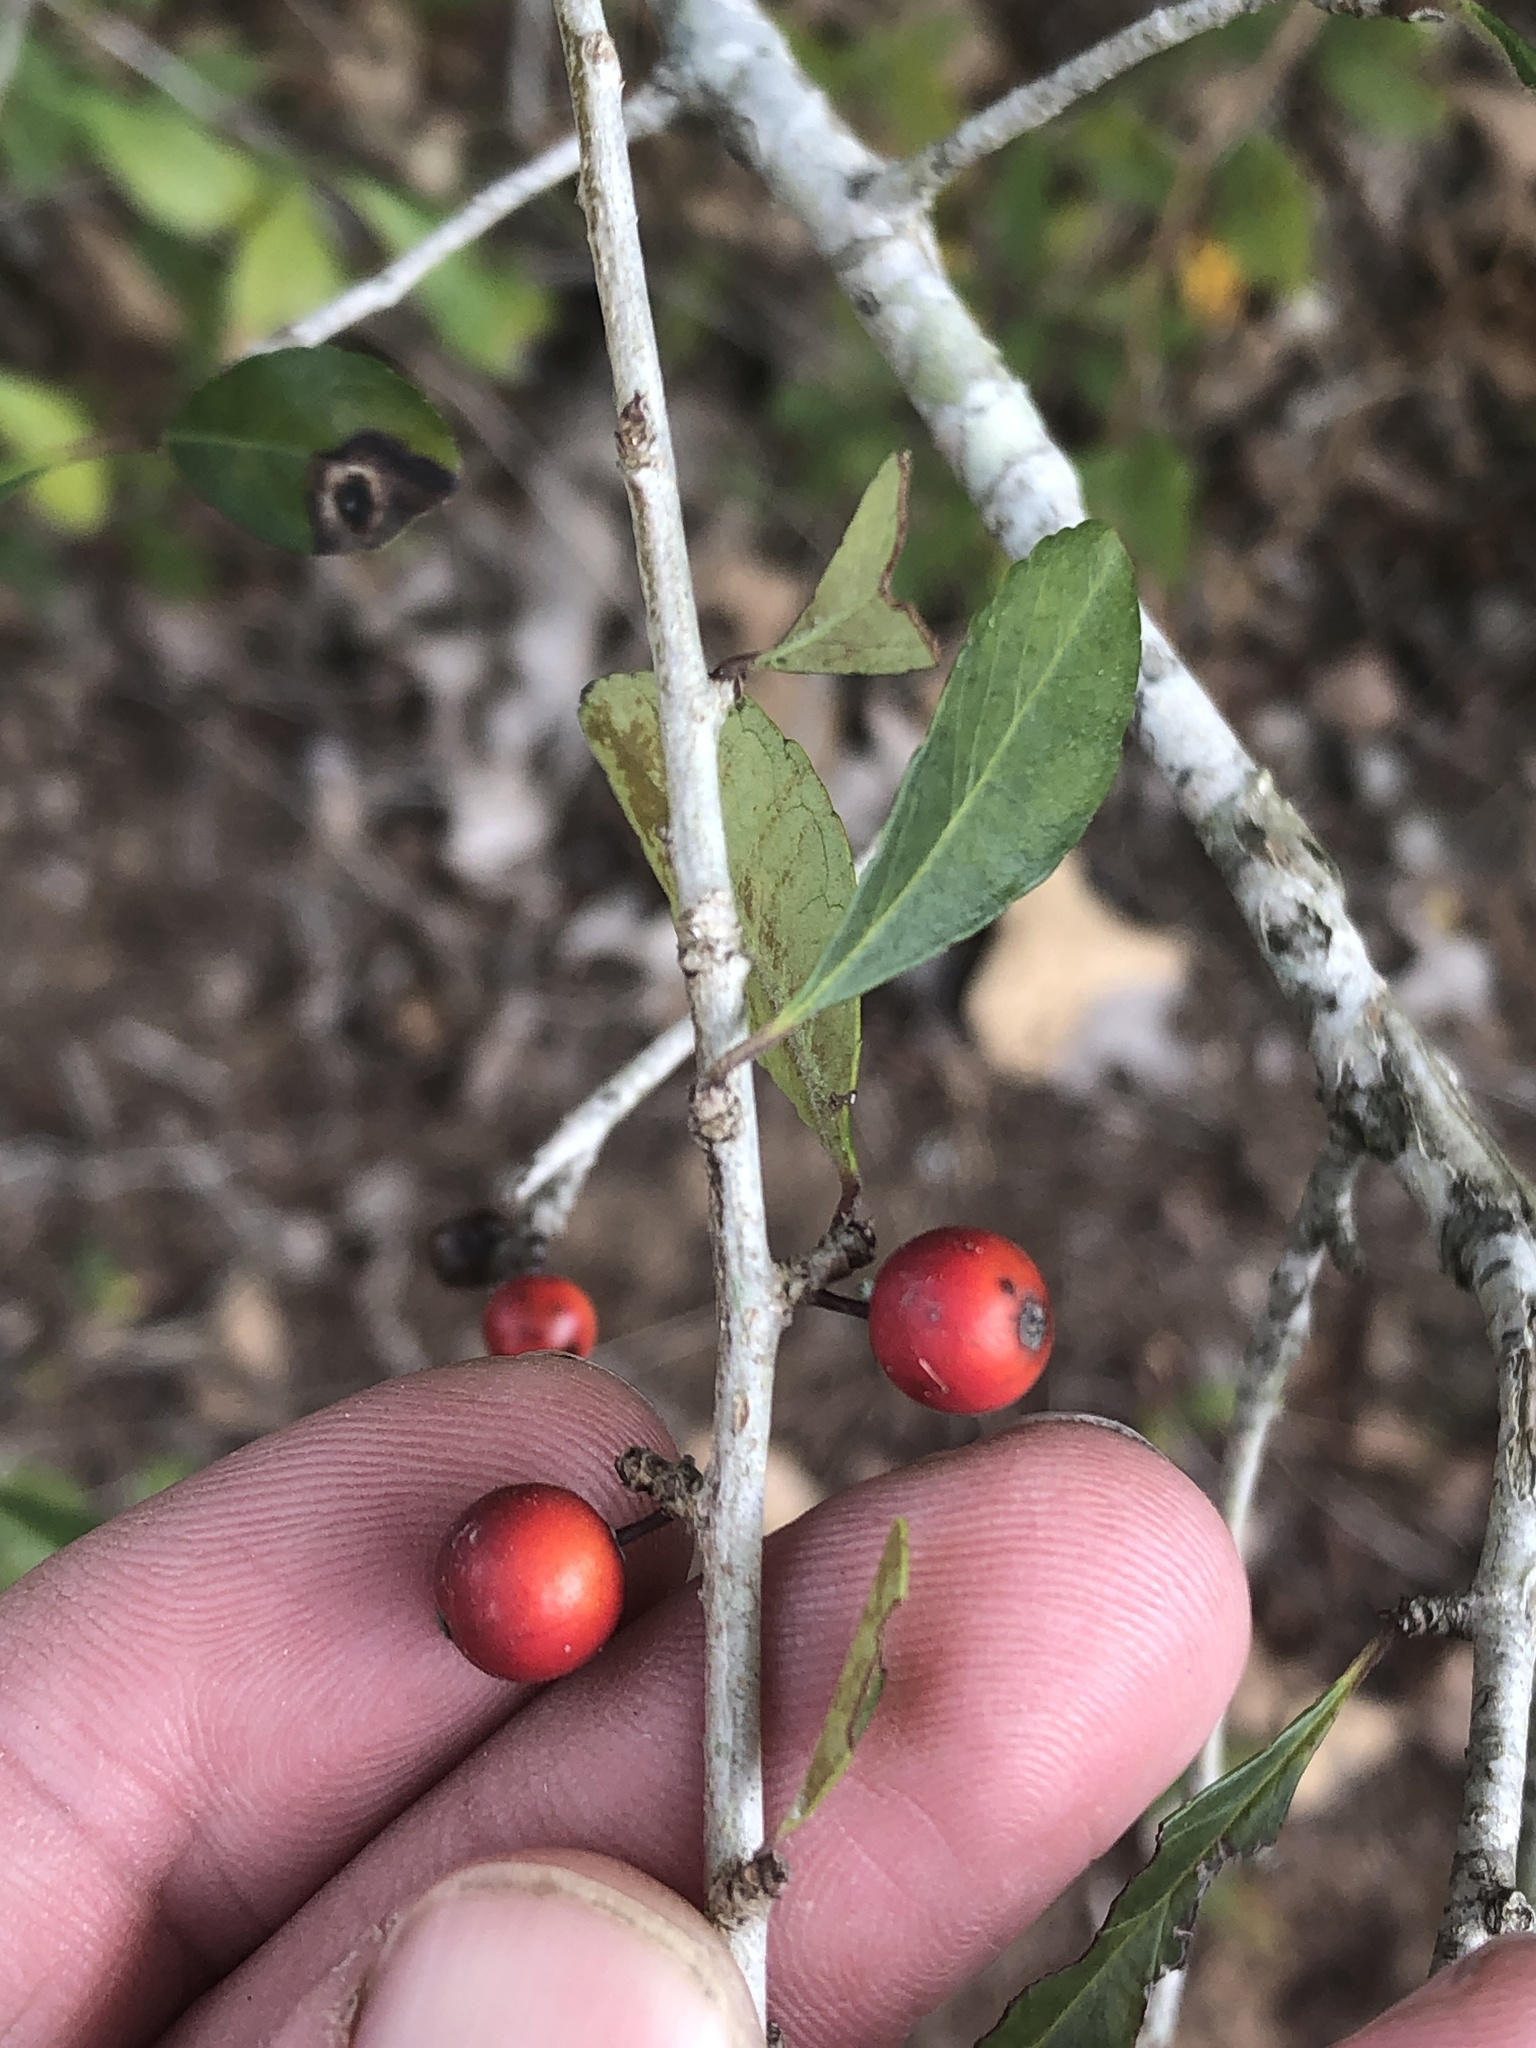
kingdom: Plantae
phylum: Tracheophyta
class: Magnoliopsida
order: Aquifoliales
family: Aquifoliaceae
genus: Ilex
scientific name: Ilex decidua
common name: Possum-haw
